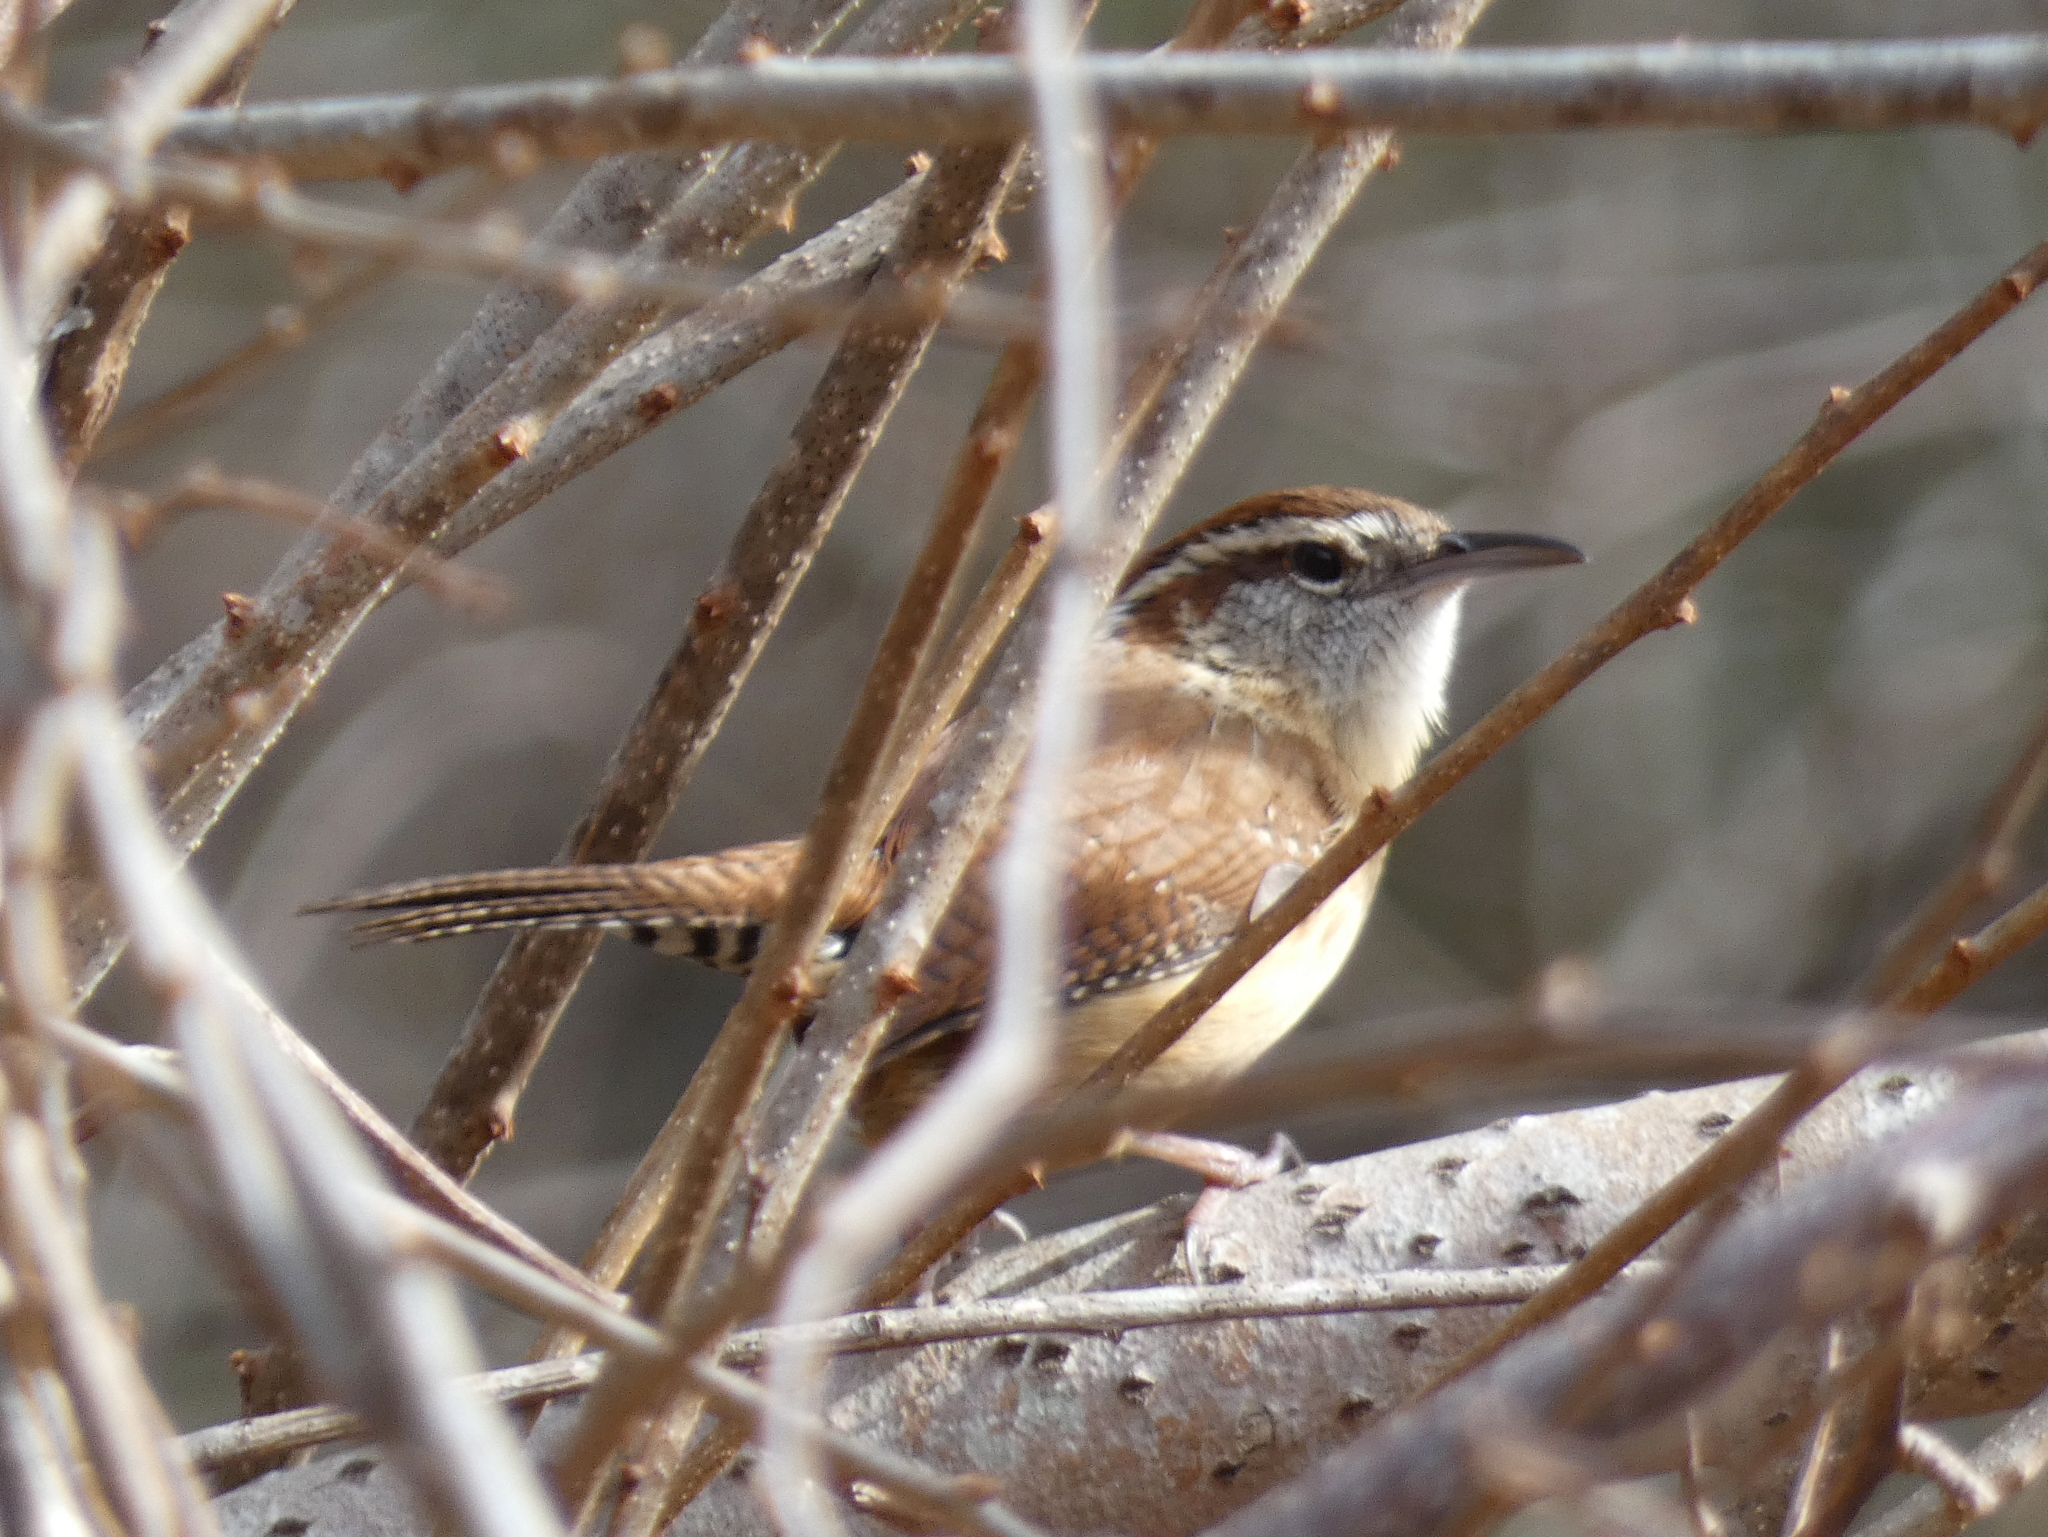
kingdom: Animalia
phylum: Chordata
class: Aves
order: Passeriformes
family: Troglodytidae
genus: Thryothorus
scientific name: Thryothorus ludovicianus
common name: Carolina wren
